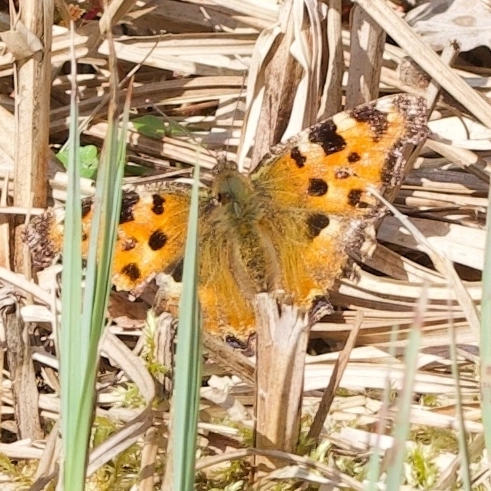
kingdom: Animalia
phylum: Arthropoda
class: Insecta
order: Lepidoptera
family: Nymphalidae
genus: Nymphalis
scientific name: Nymphalis polychloros
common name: Large tortoiseshell
